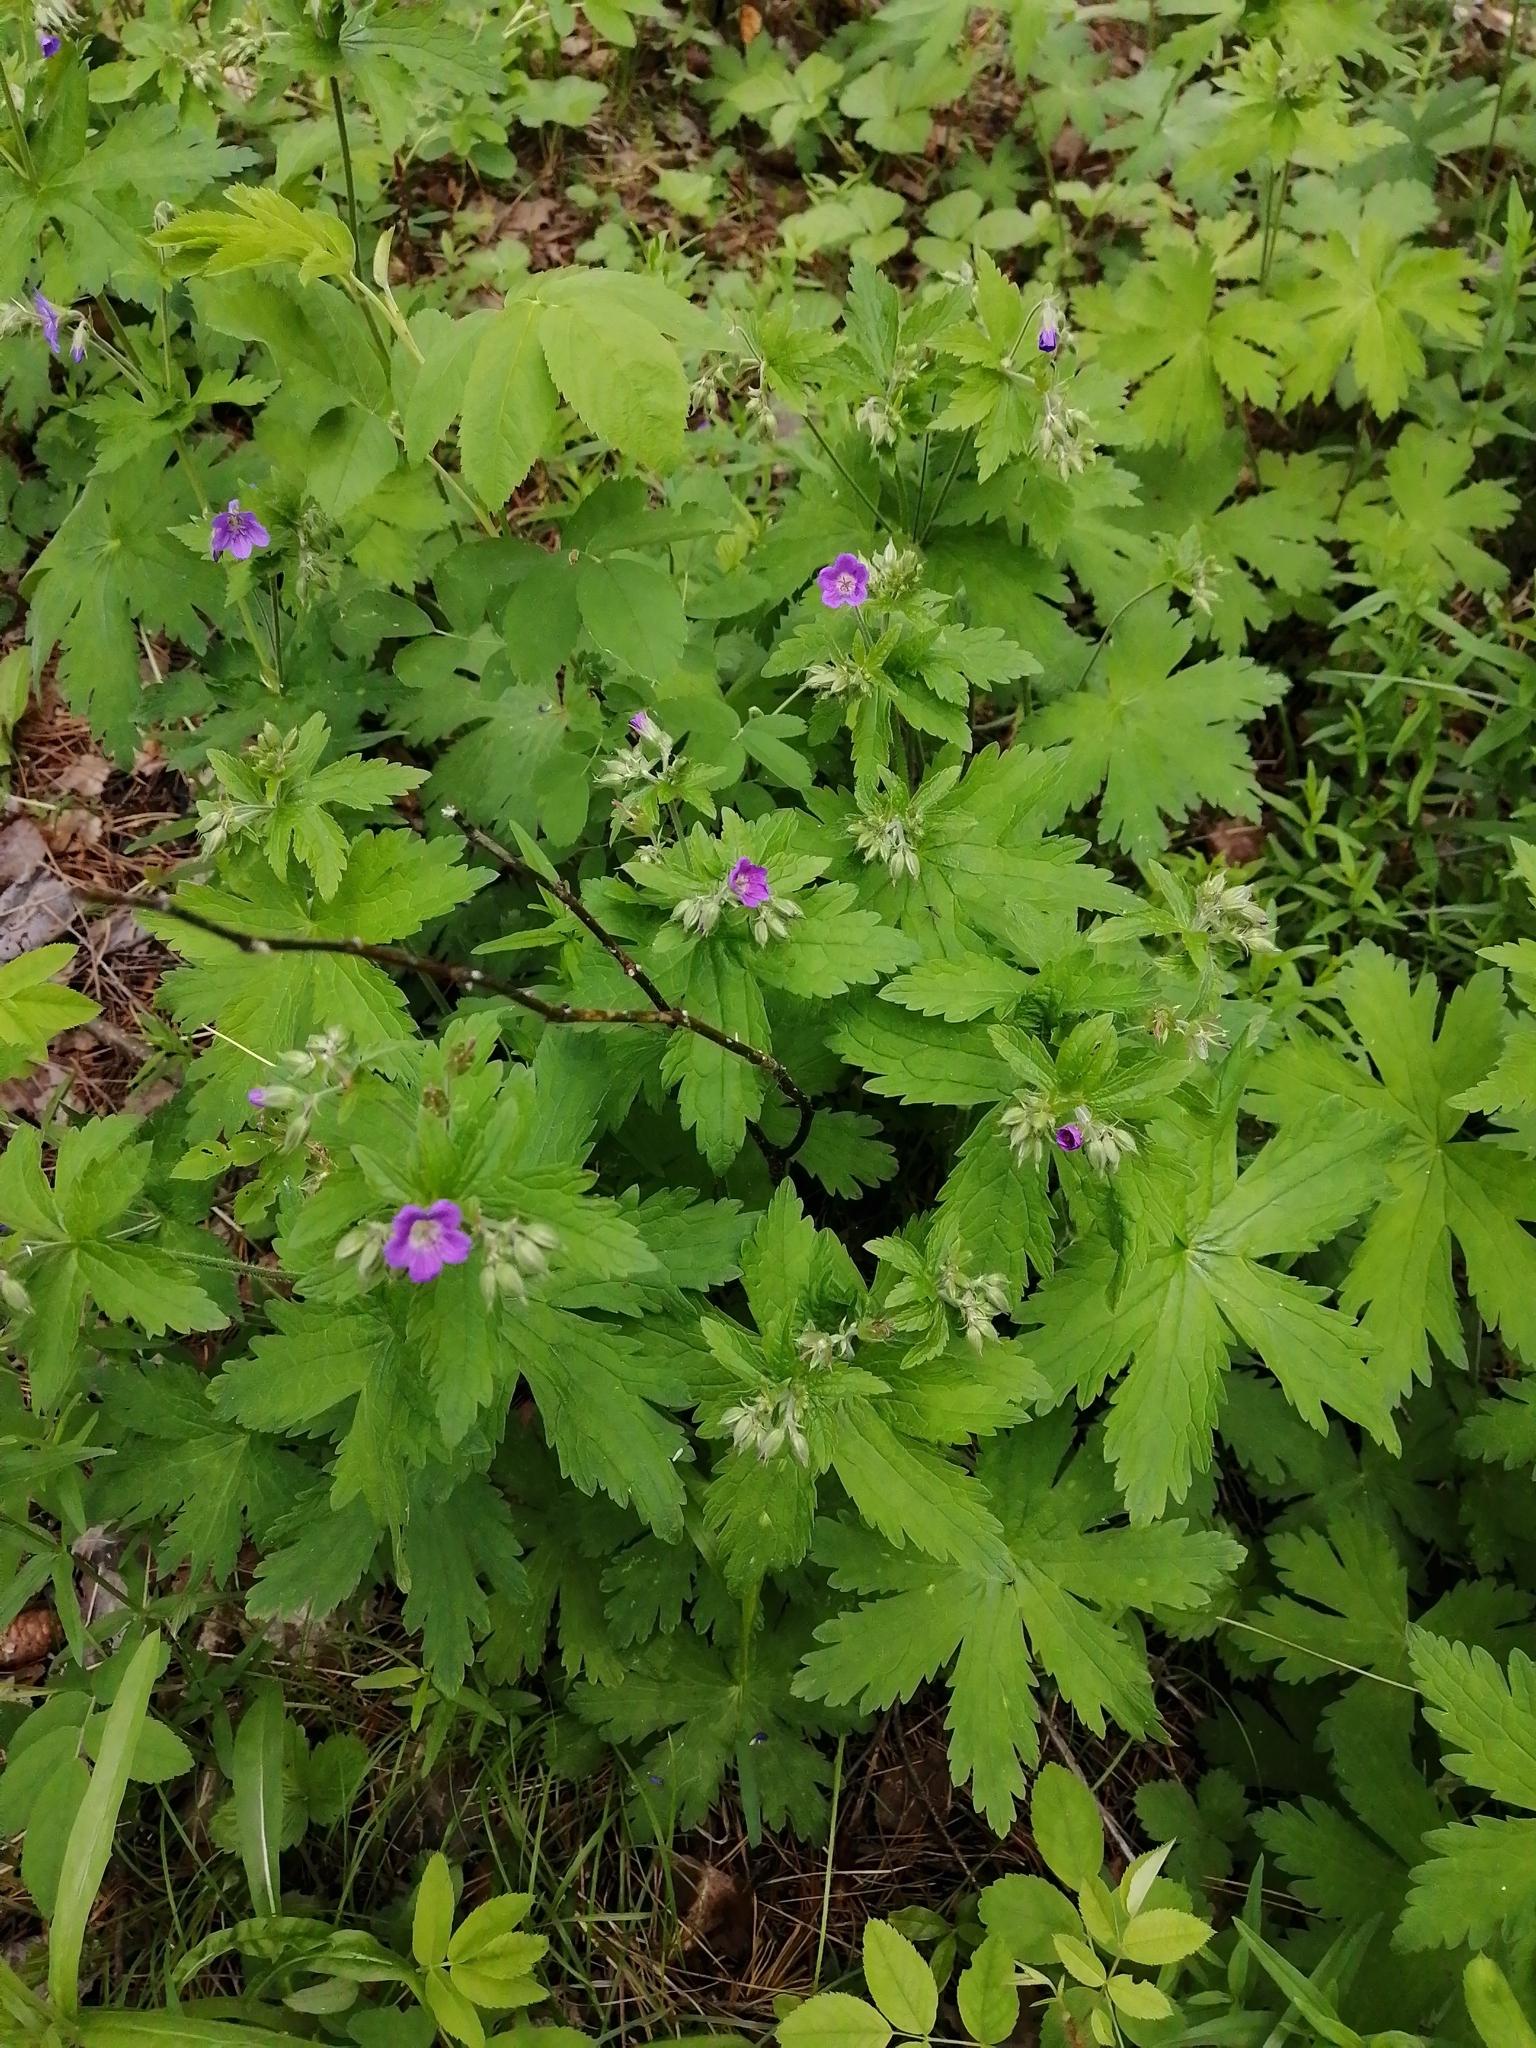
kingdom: Plantae
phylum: Tracheophyta
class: Magnoliopsida
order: Geraniales
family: Geraniaceae
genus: Geranium
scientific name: Geranium sylvaticum
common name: Wood crane's-bill
